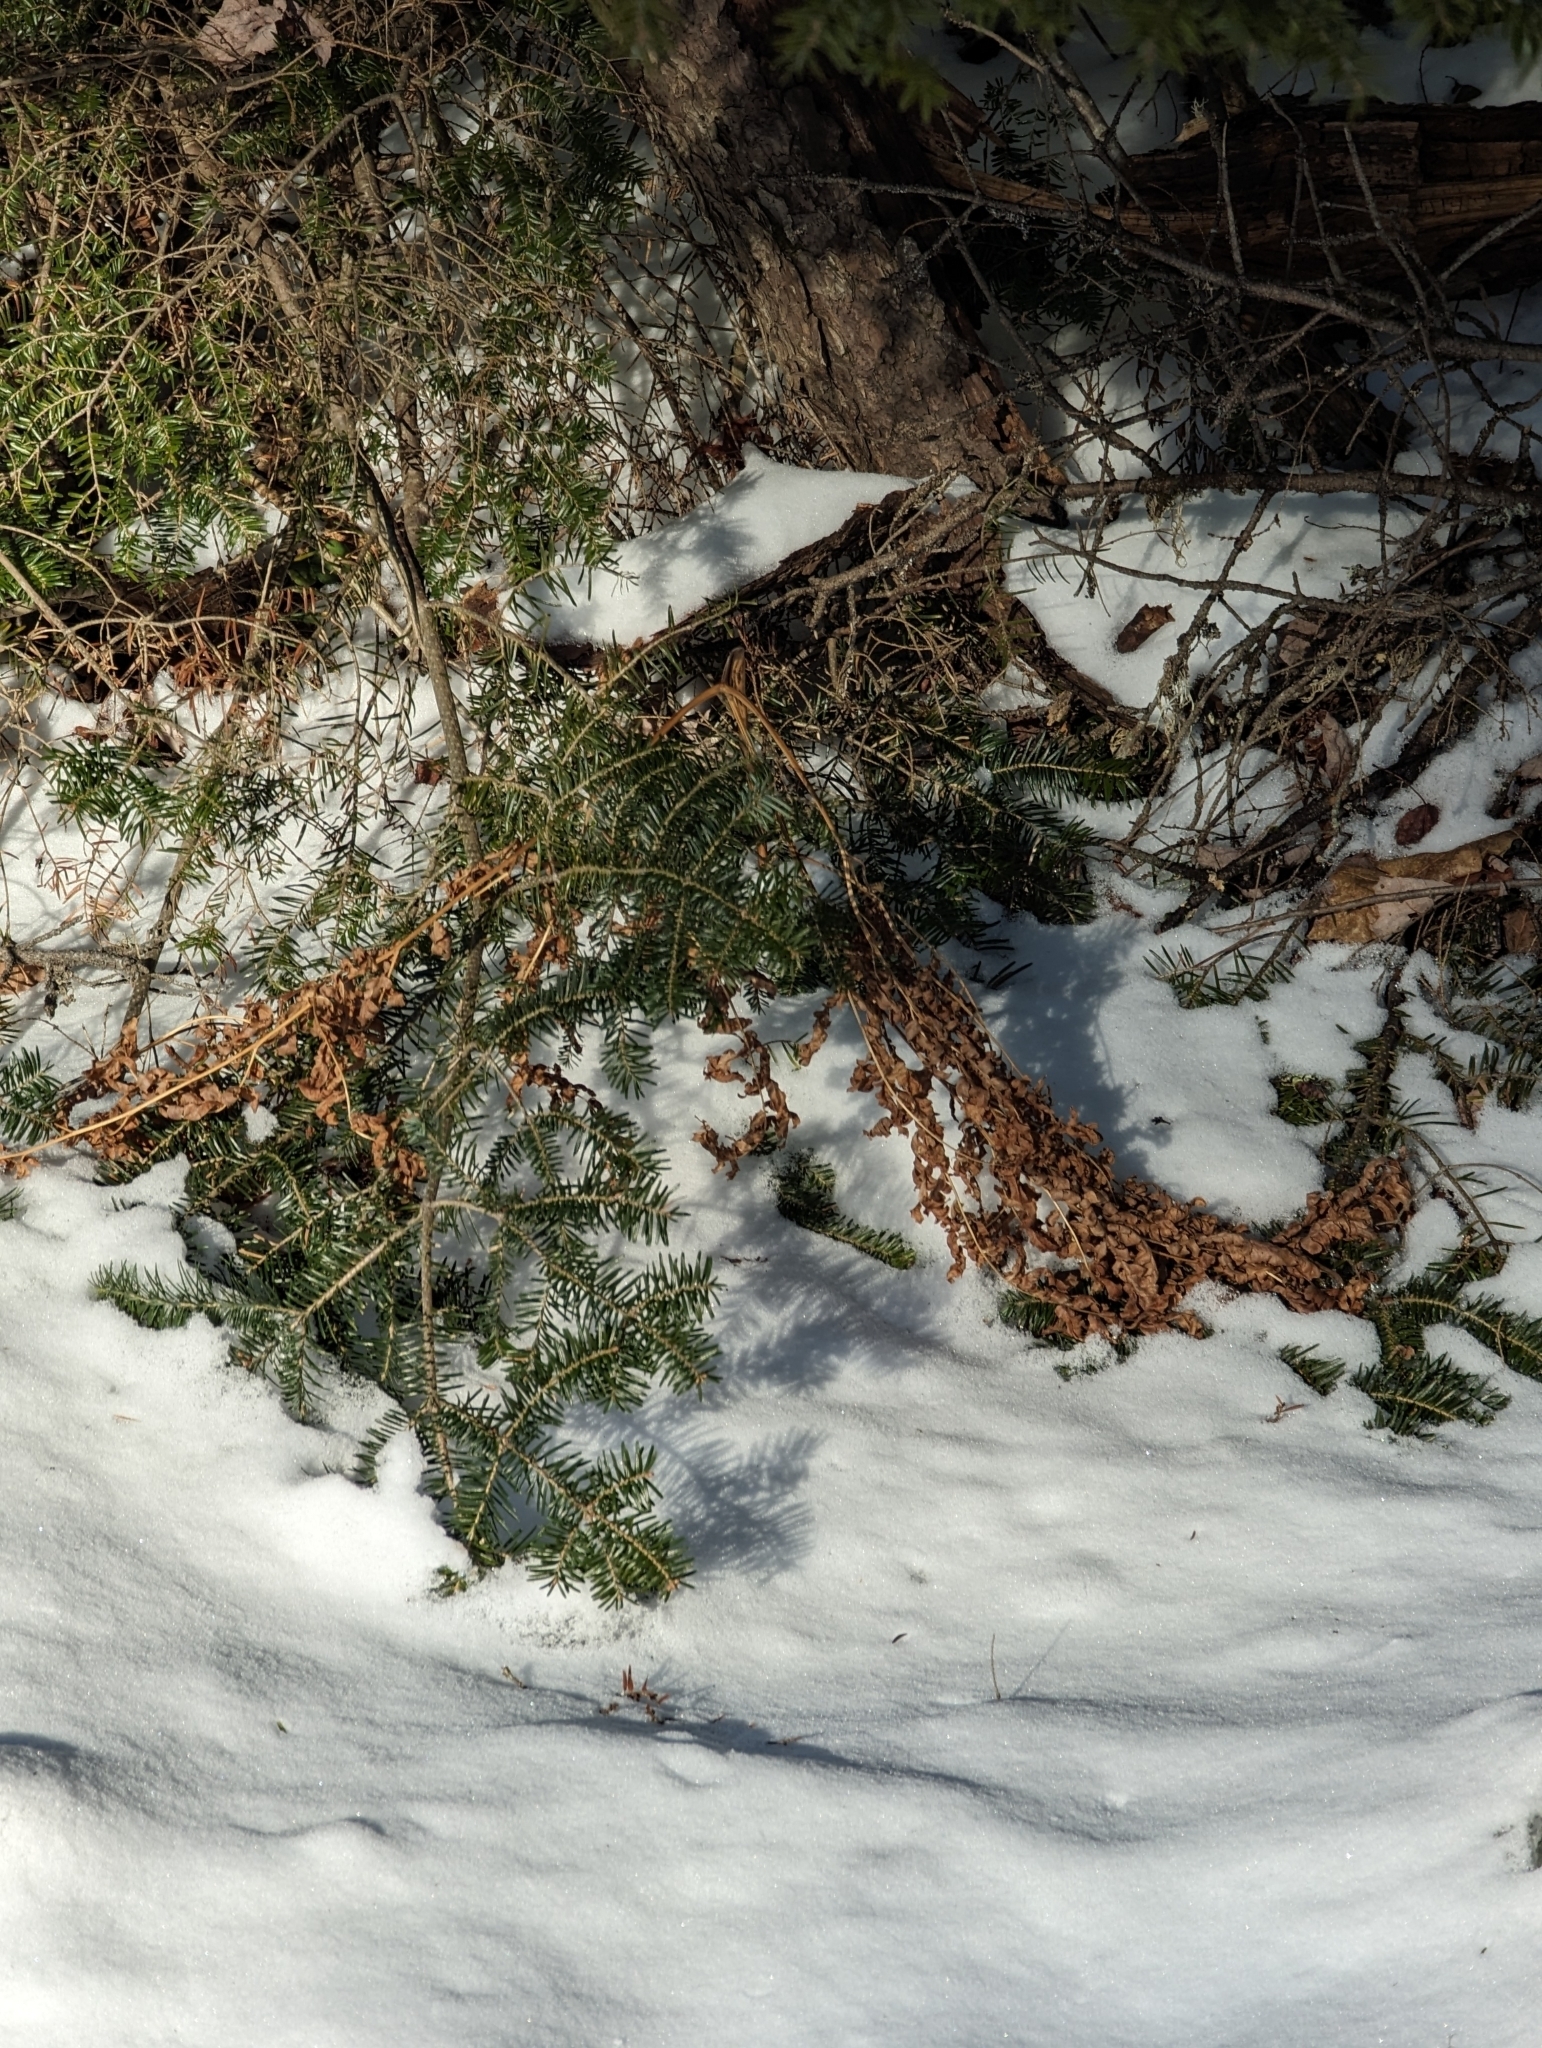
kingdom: Plantae
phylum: Tracheophyta
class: Pinopsida
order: Pinales
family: Pinaceae
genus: Abies
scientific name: Abies balsamea
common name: Balsam fir
